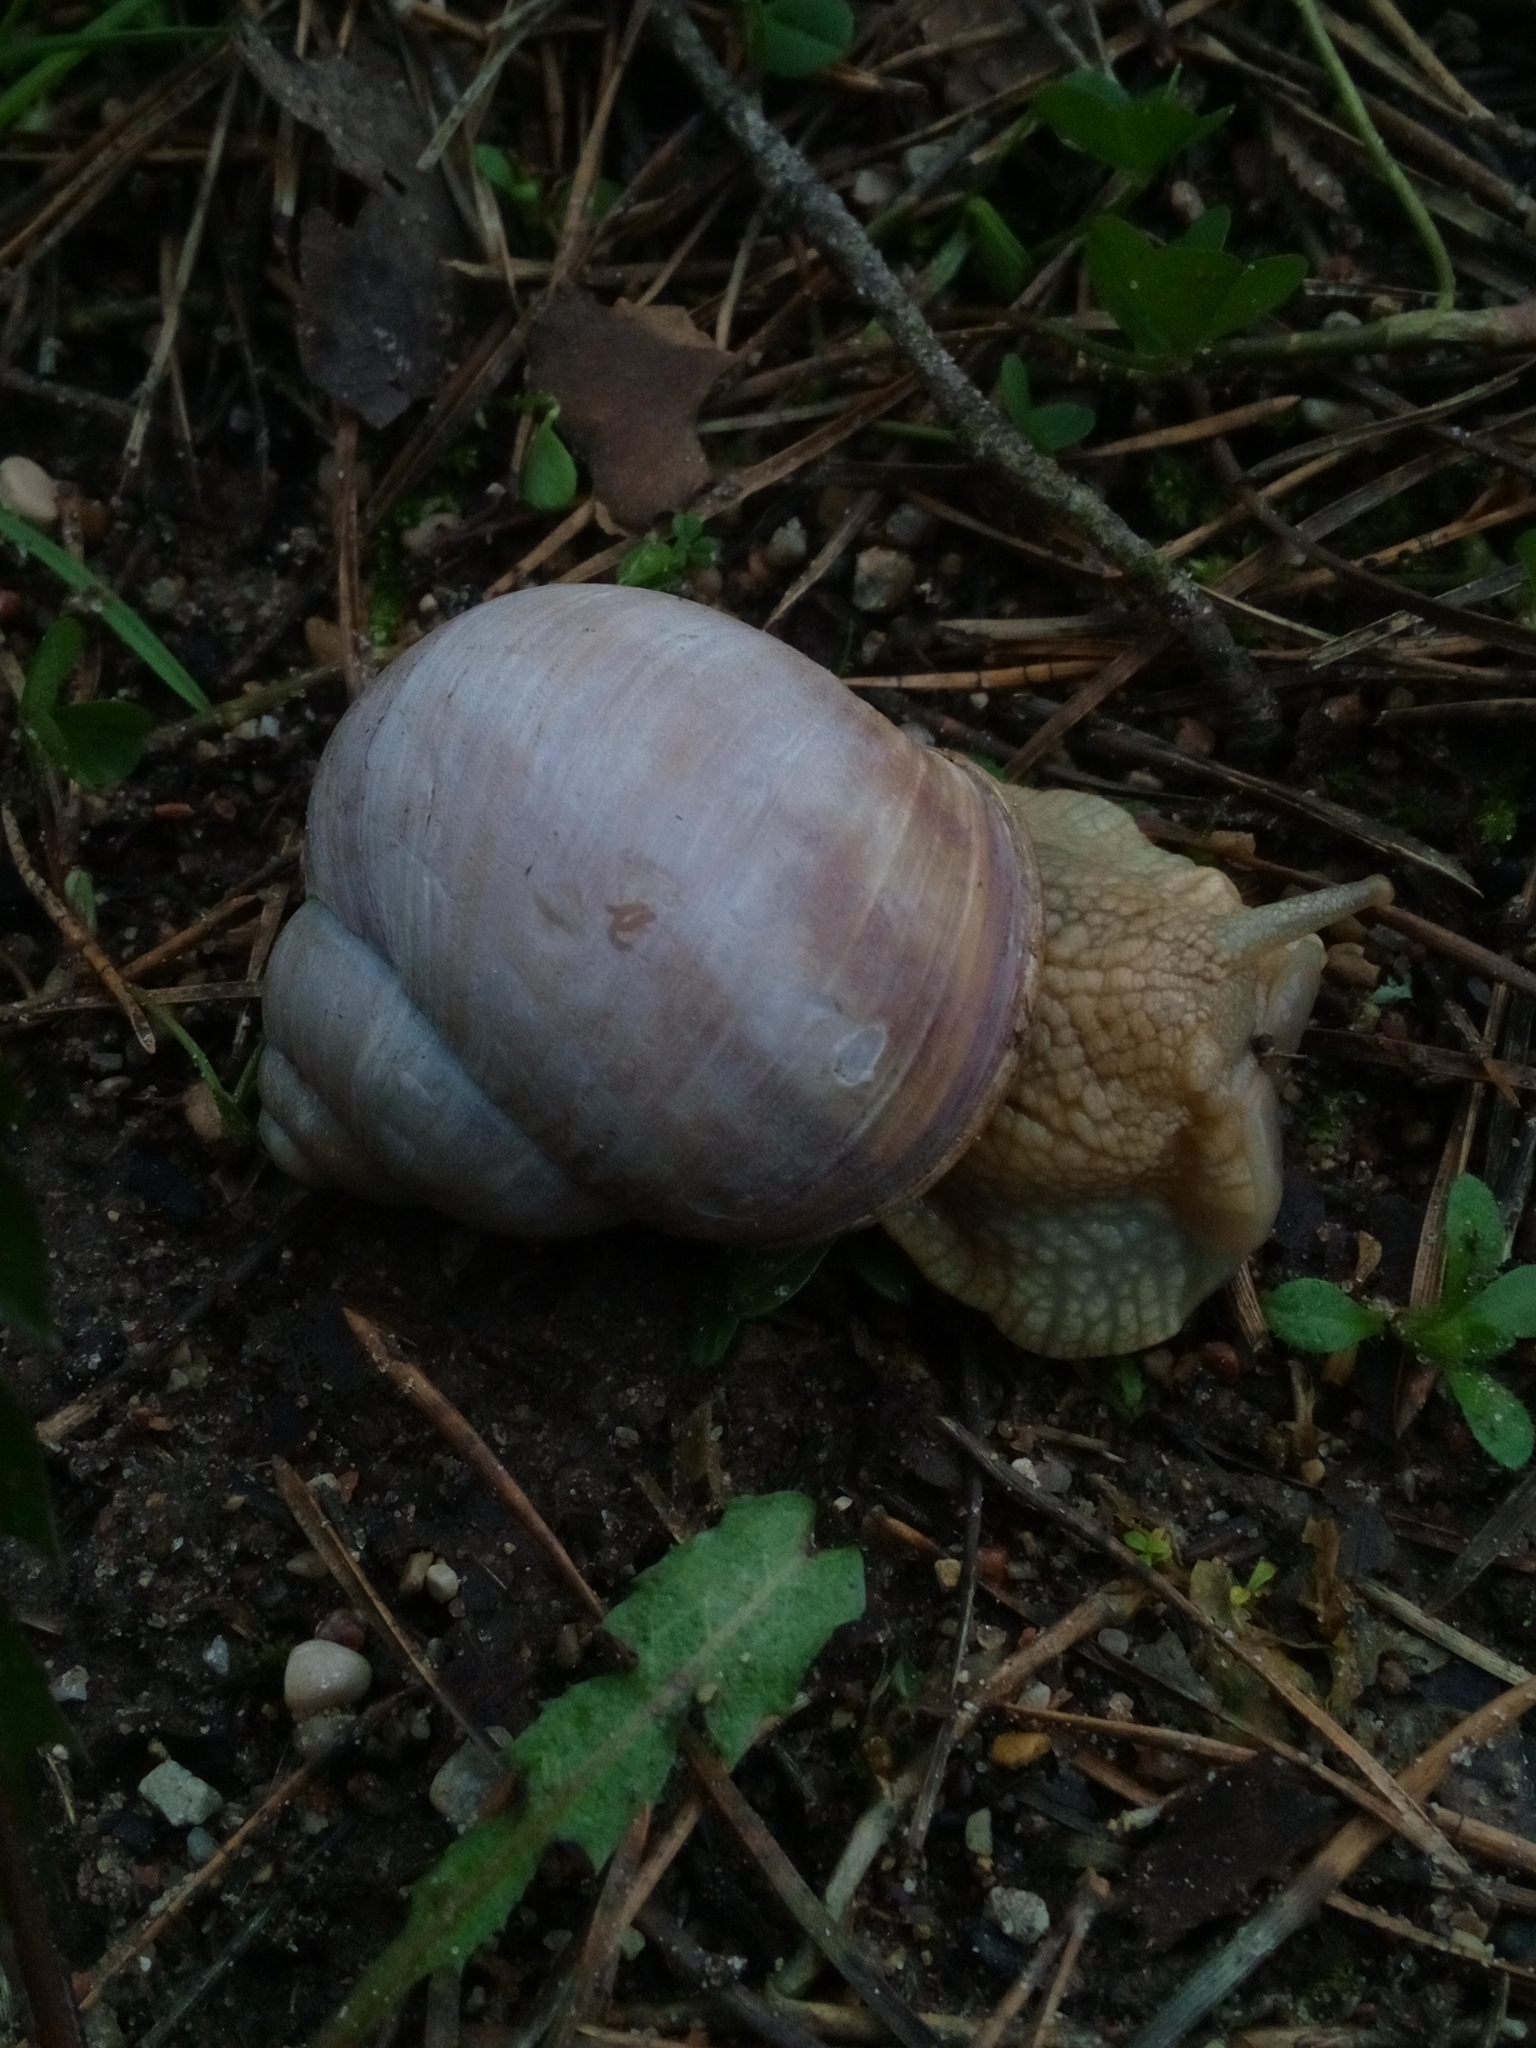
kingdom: Animalia
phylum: Mollusca
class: Gastropoda
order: Stylommatophora
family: Helicidae
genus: Helix
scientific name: Helix pomatia
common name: Roman snail
